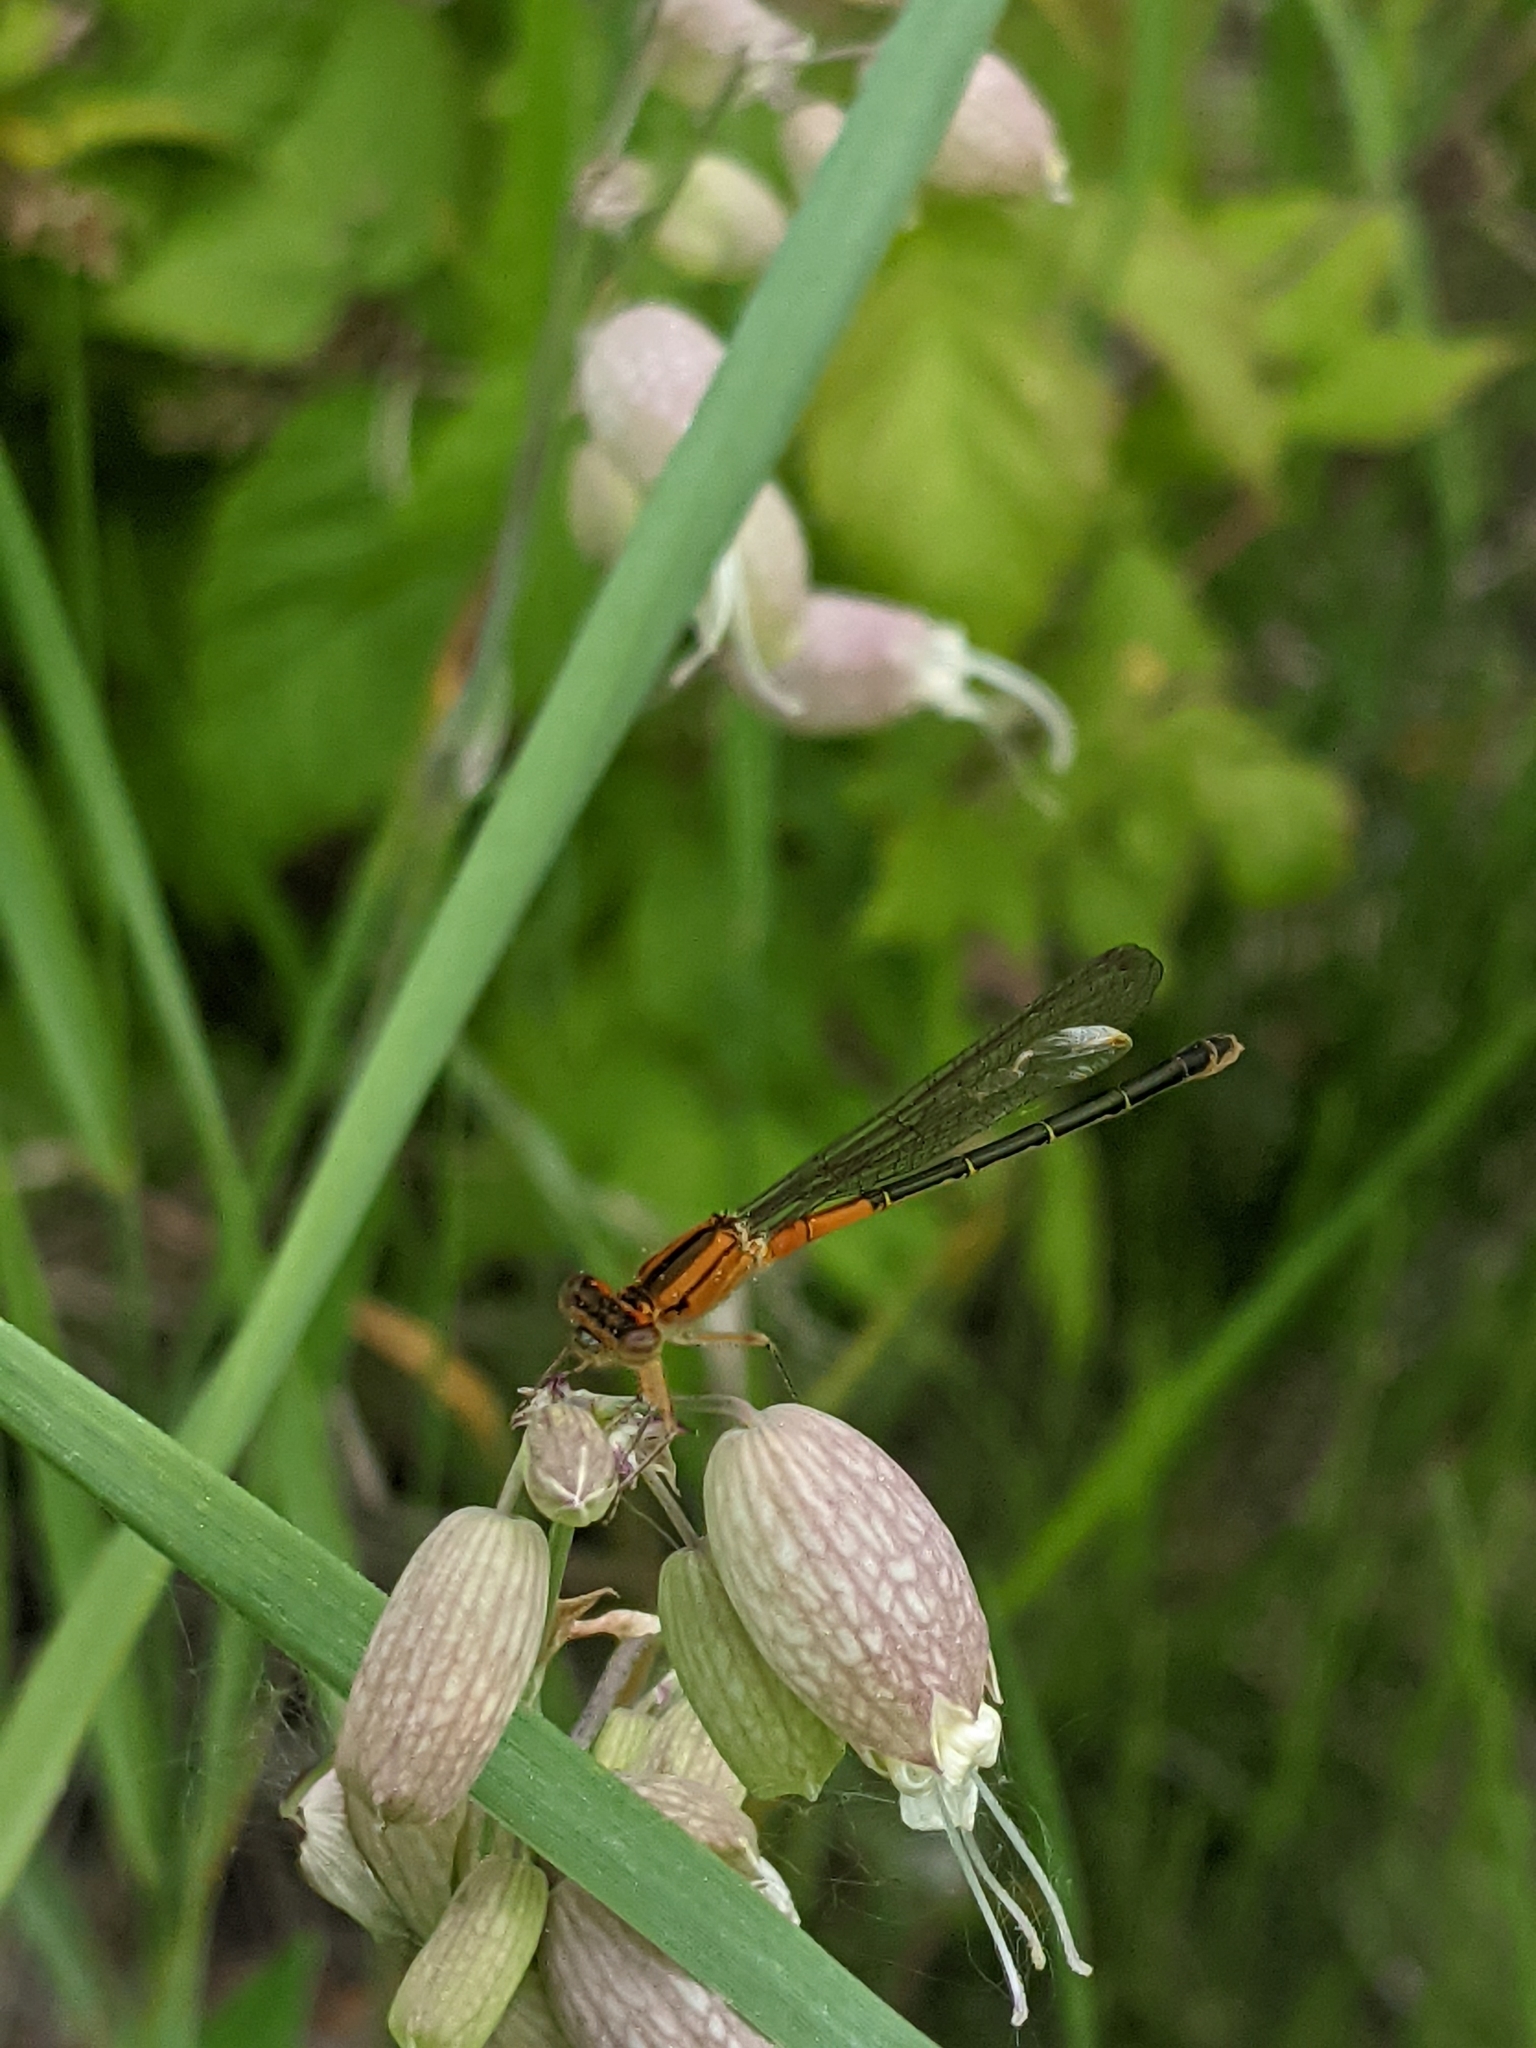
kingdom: Animalia
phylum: Arthropoda
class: Insecta
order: Odonata
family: Coenagrionidae
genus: Ischnura
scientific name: Ischnura verticalis
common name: Eastern forktail
